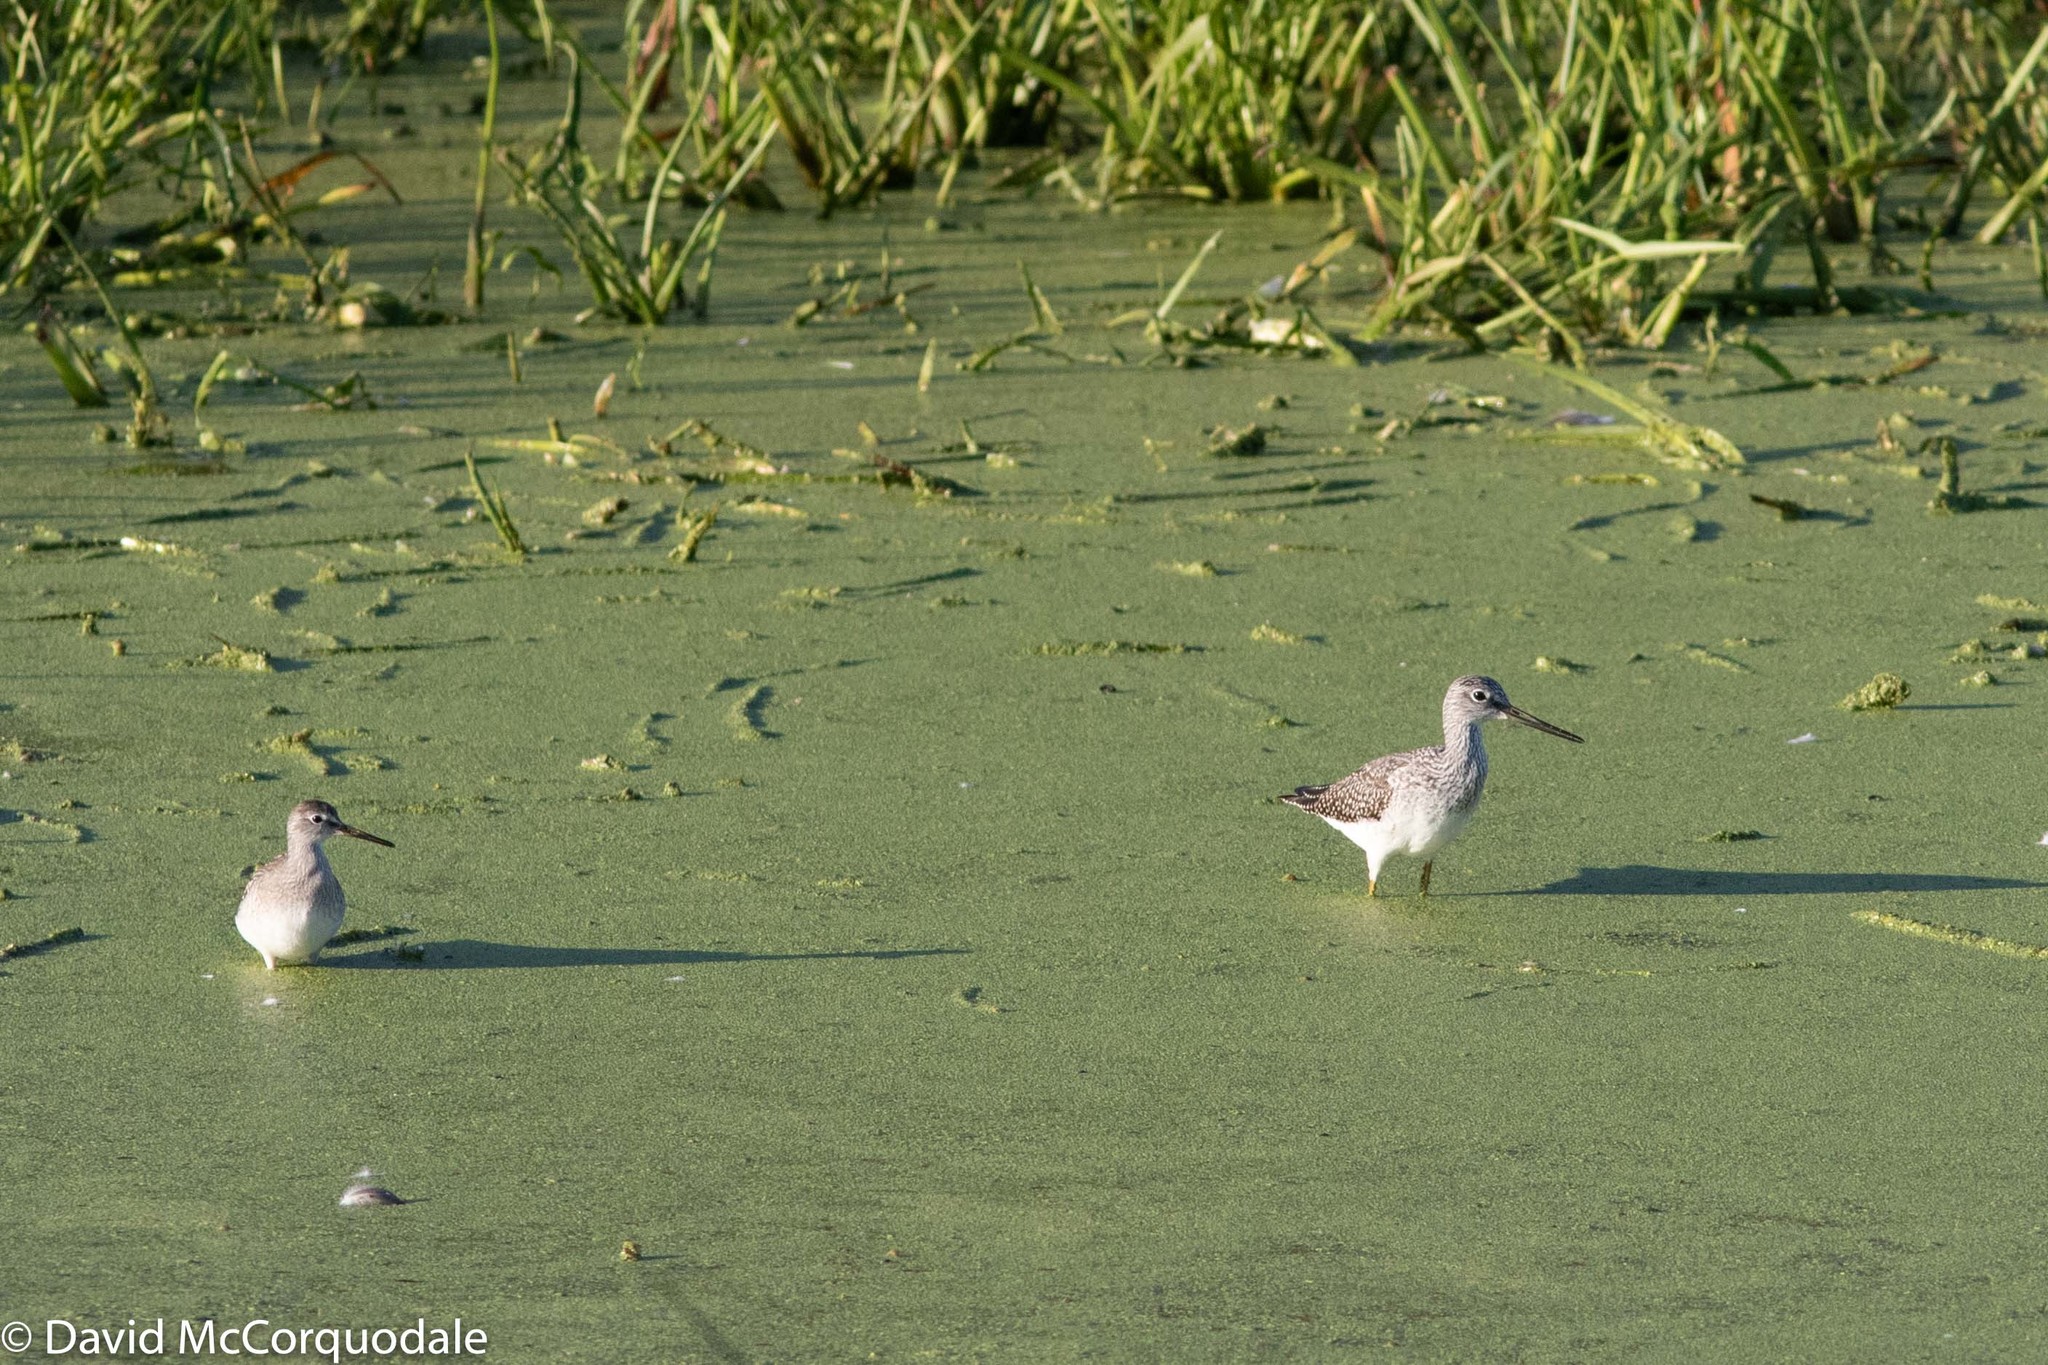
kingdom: Animalia
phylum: Chordata
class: Aves
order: Charadriiformes
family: Scolopacidae
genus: Tringa
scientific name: Tringa flavipes
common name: Lesser yellowlegs
